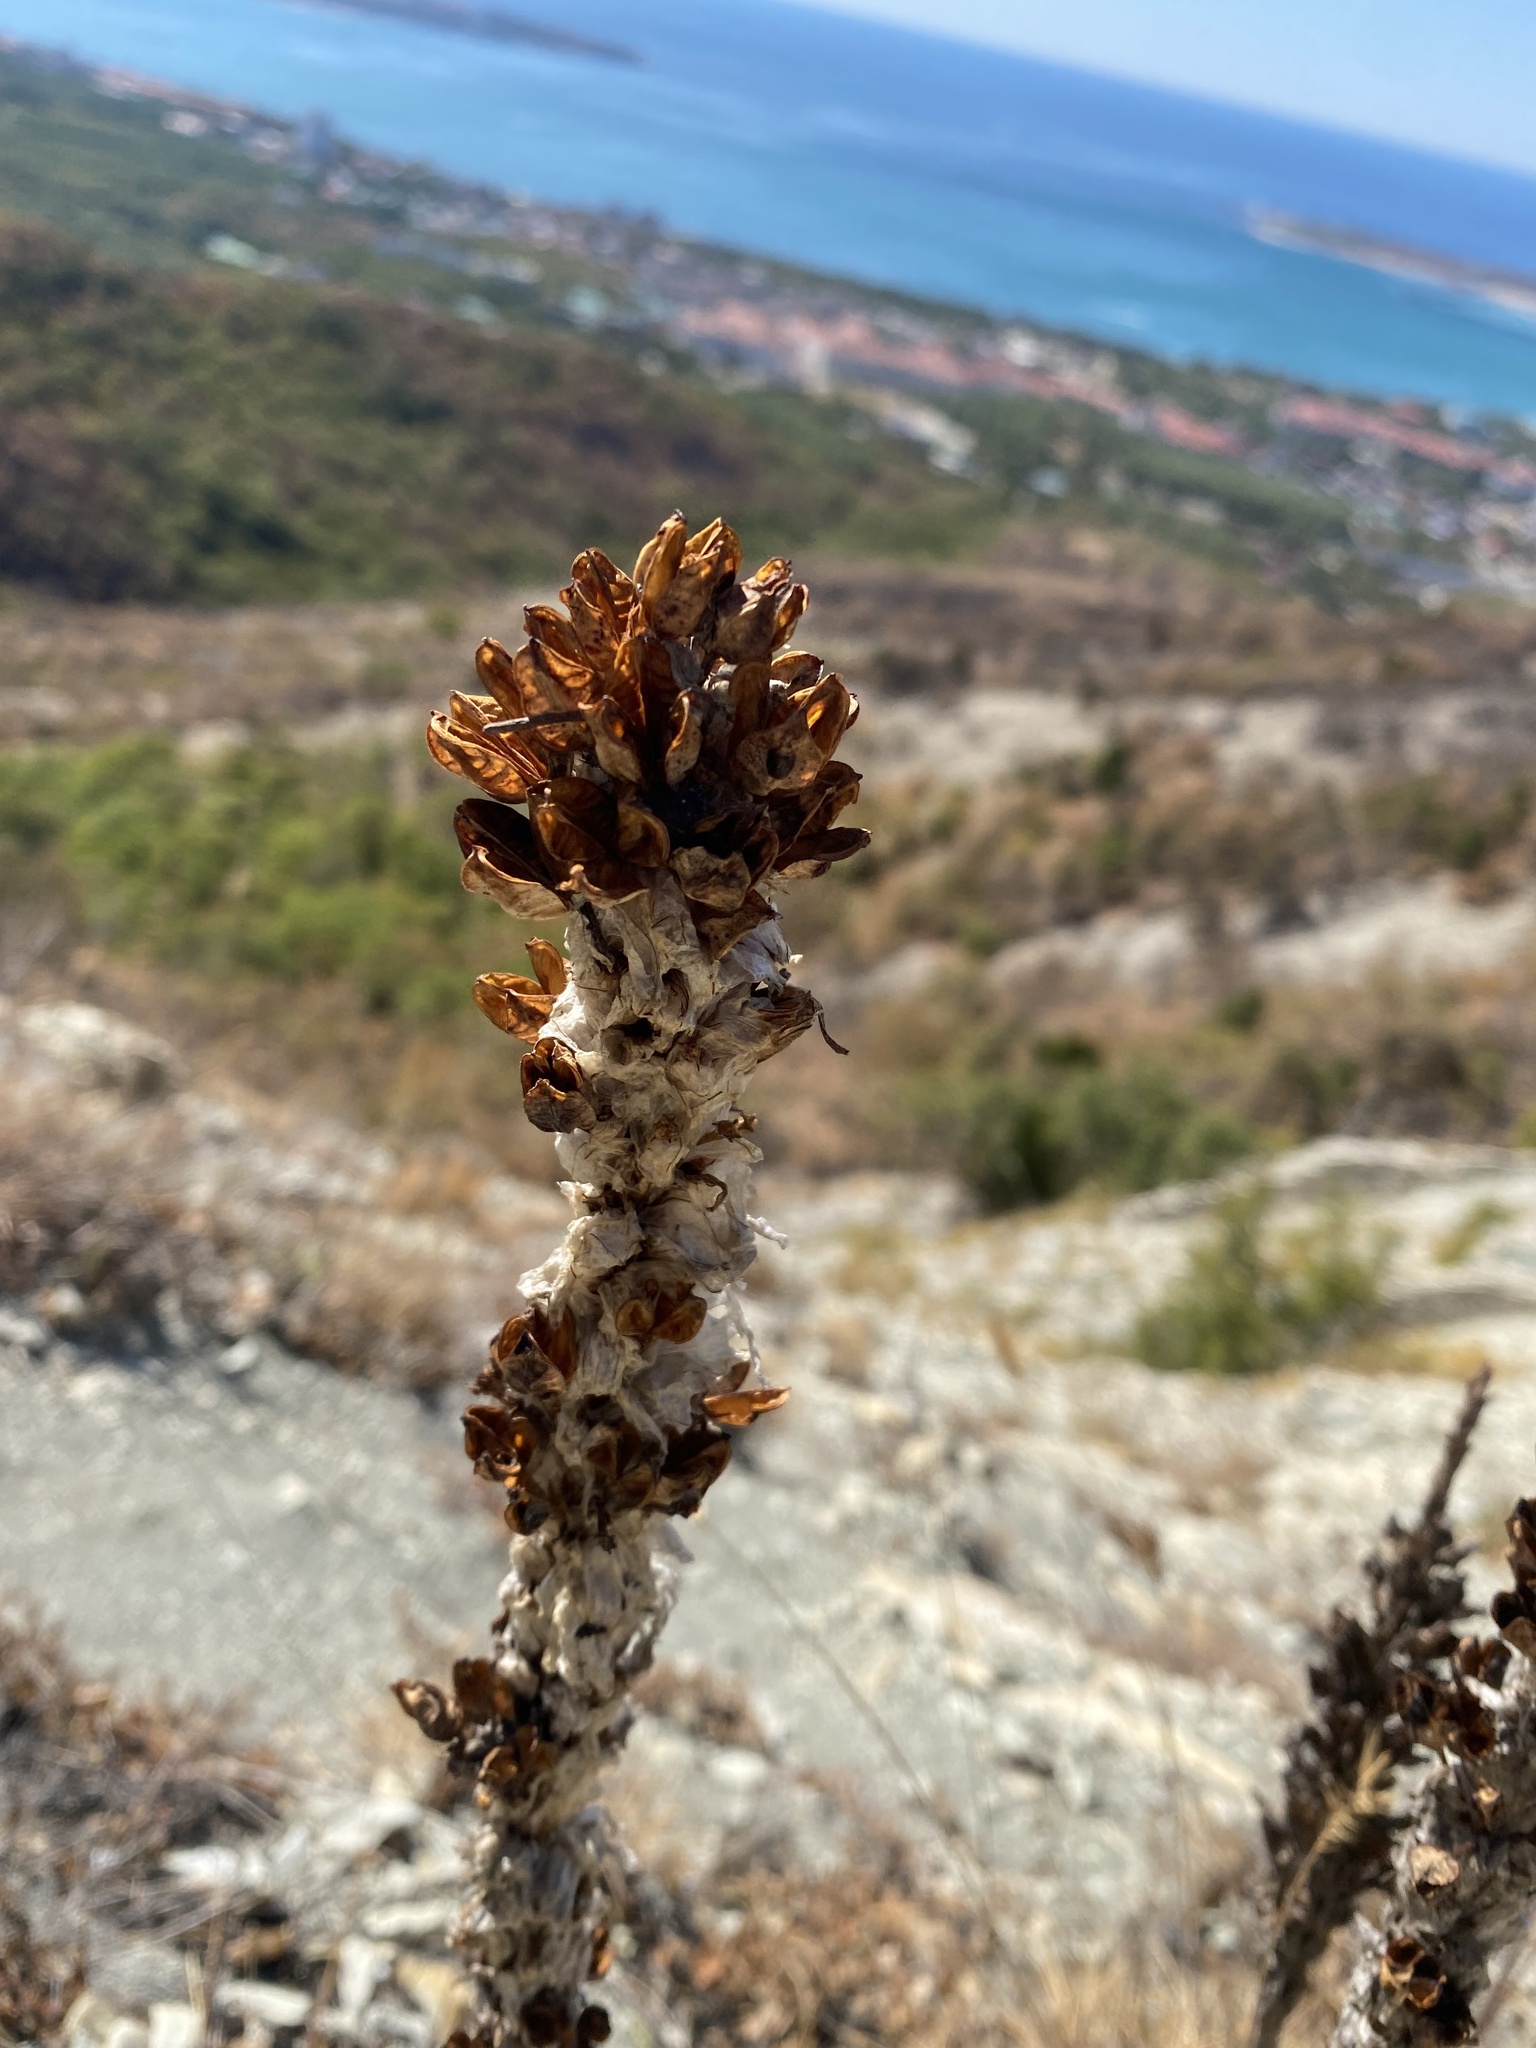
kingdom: Plantae
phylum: Tracheophyta
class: Liliopsida
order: Asparagales
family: Asphodelaceae
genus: Asphodeline
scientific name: Asphodeline taurica
